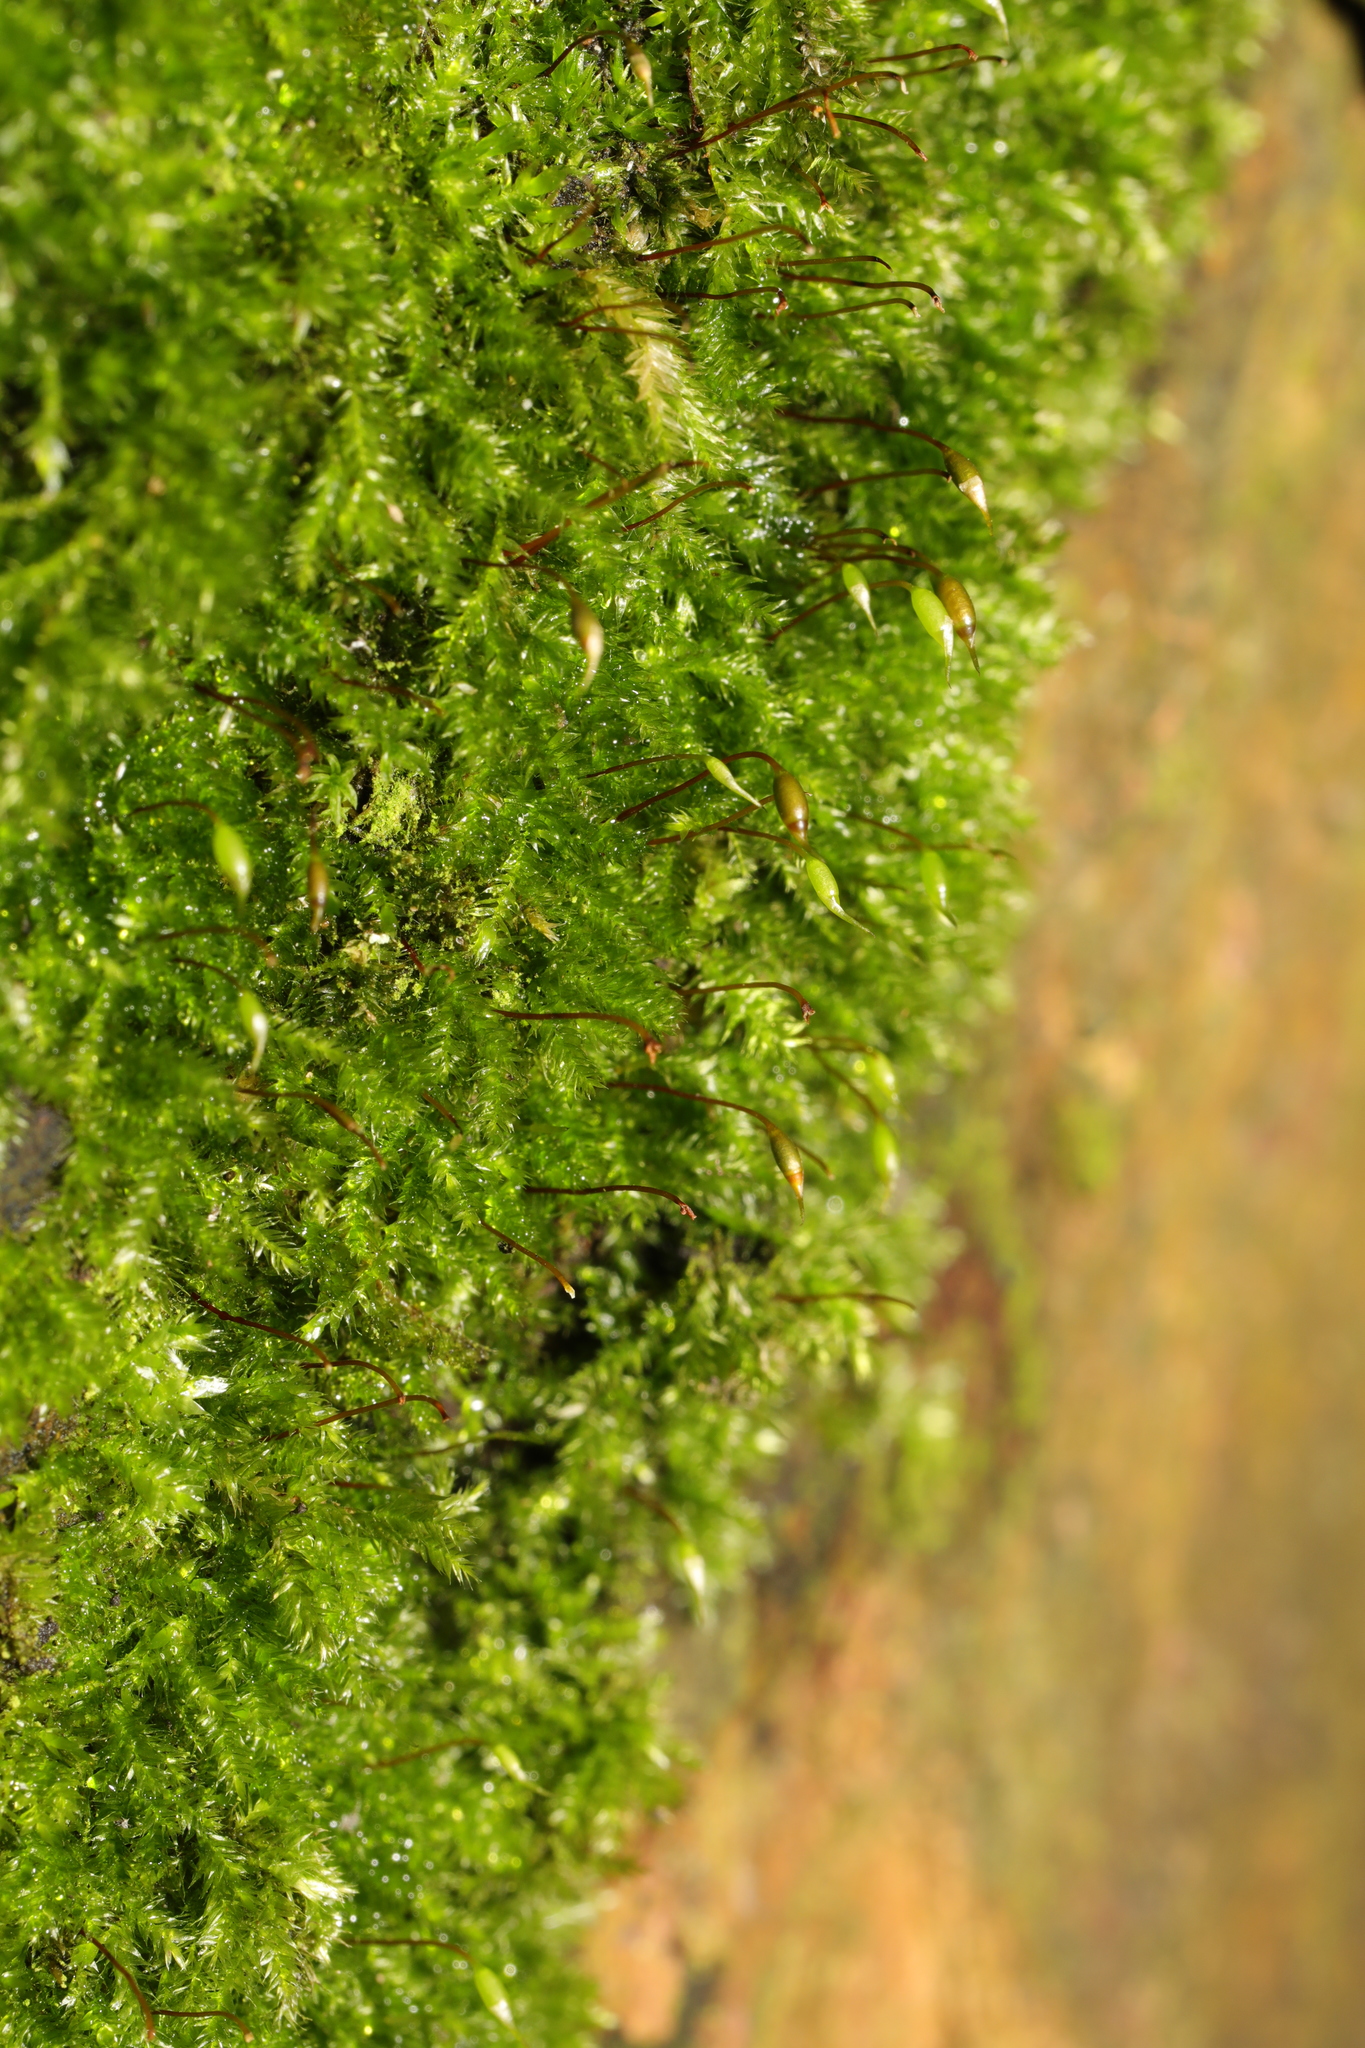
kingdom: Plantae
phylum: Bryophyta
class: Bryopsida
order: Hypnales
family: Hypnaceae
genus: Hypnum
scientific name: Hypnum cupressiforme
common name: Cypress-leaved plait-moss
